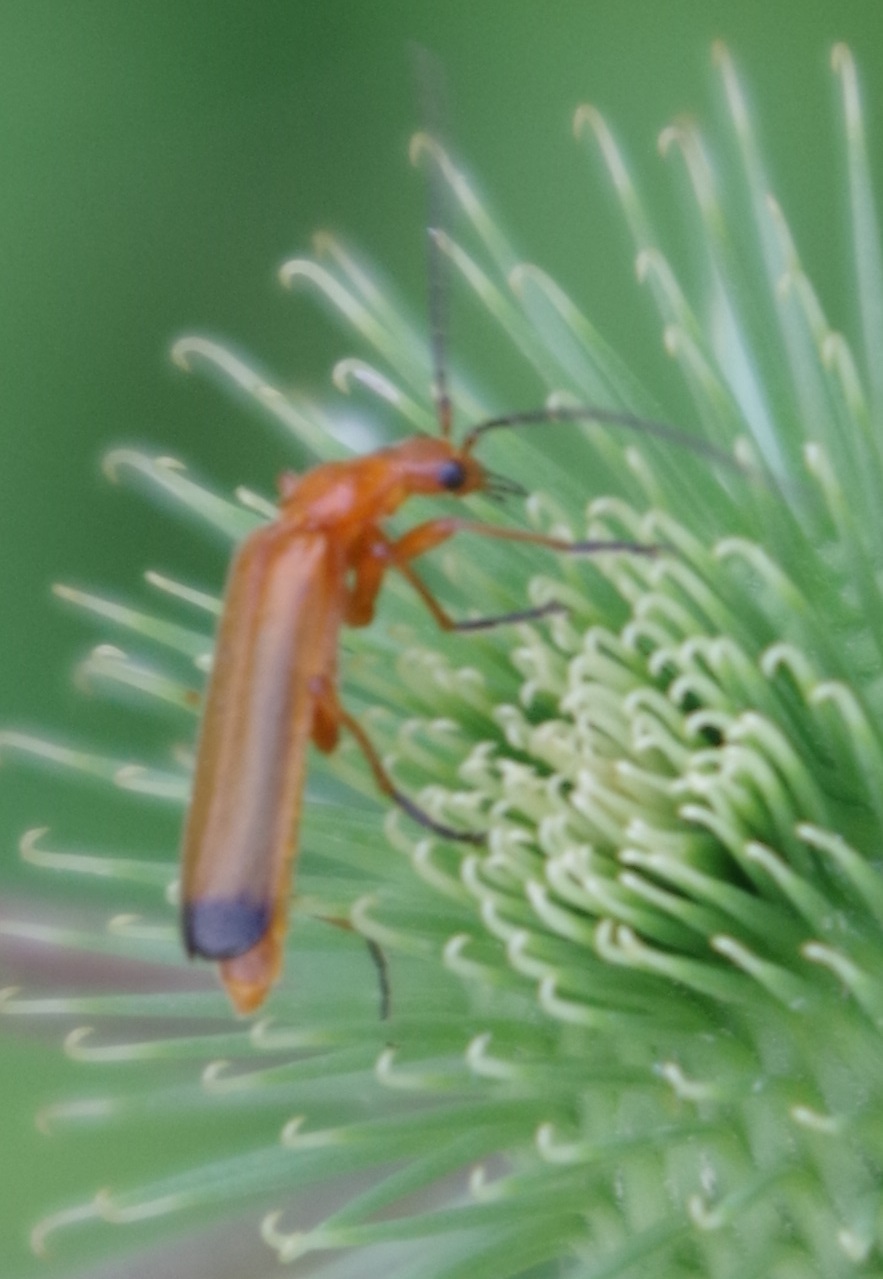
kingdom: Animalia
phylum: Arthropoda
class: Insecta
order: Coleoptera
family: Cantharidae
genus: Rhagonycha
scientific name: Rhagonycha fulva
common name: Common red soldier beetle
